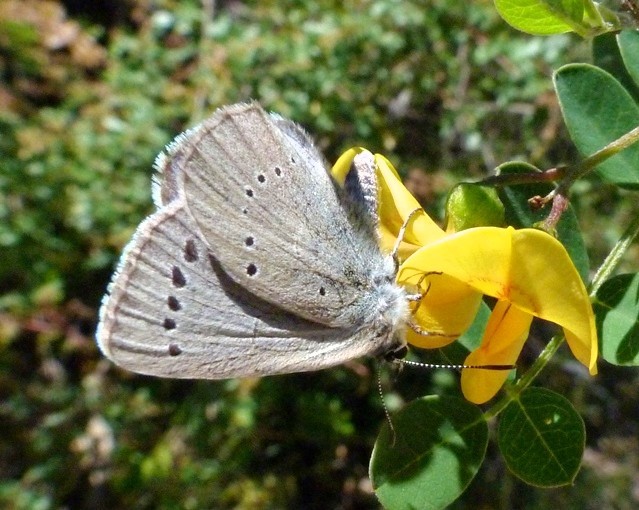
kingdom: Animalia
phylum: Arthropoda
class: Insecta
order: Lepidoptera
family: Lycaenidae
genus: Iolana
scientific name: Iolana debilitata
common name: Iolas blue
